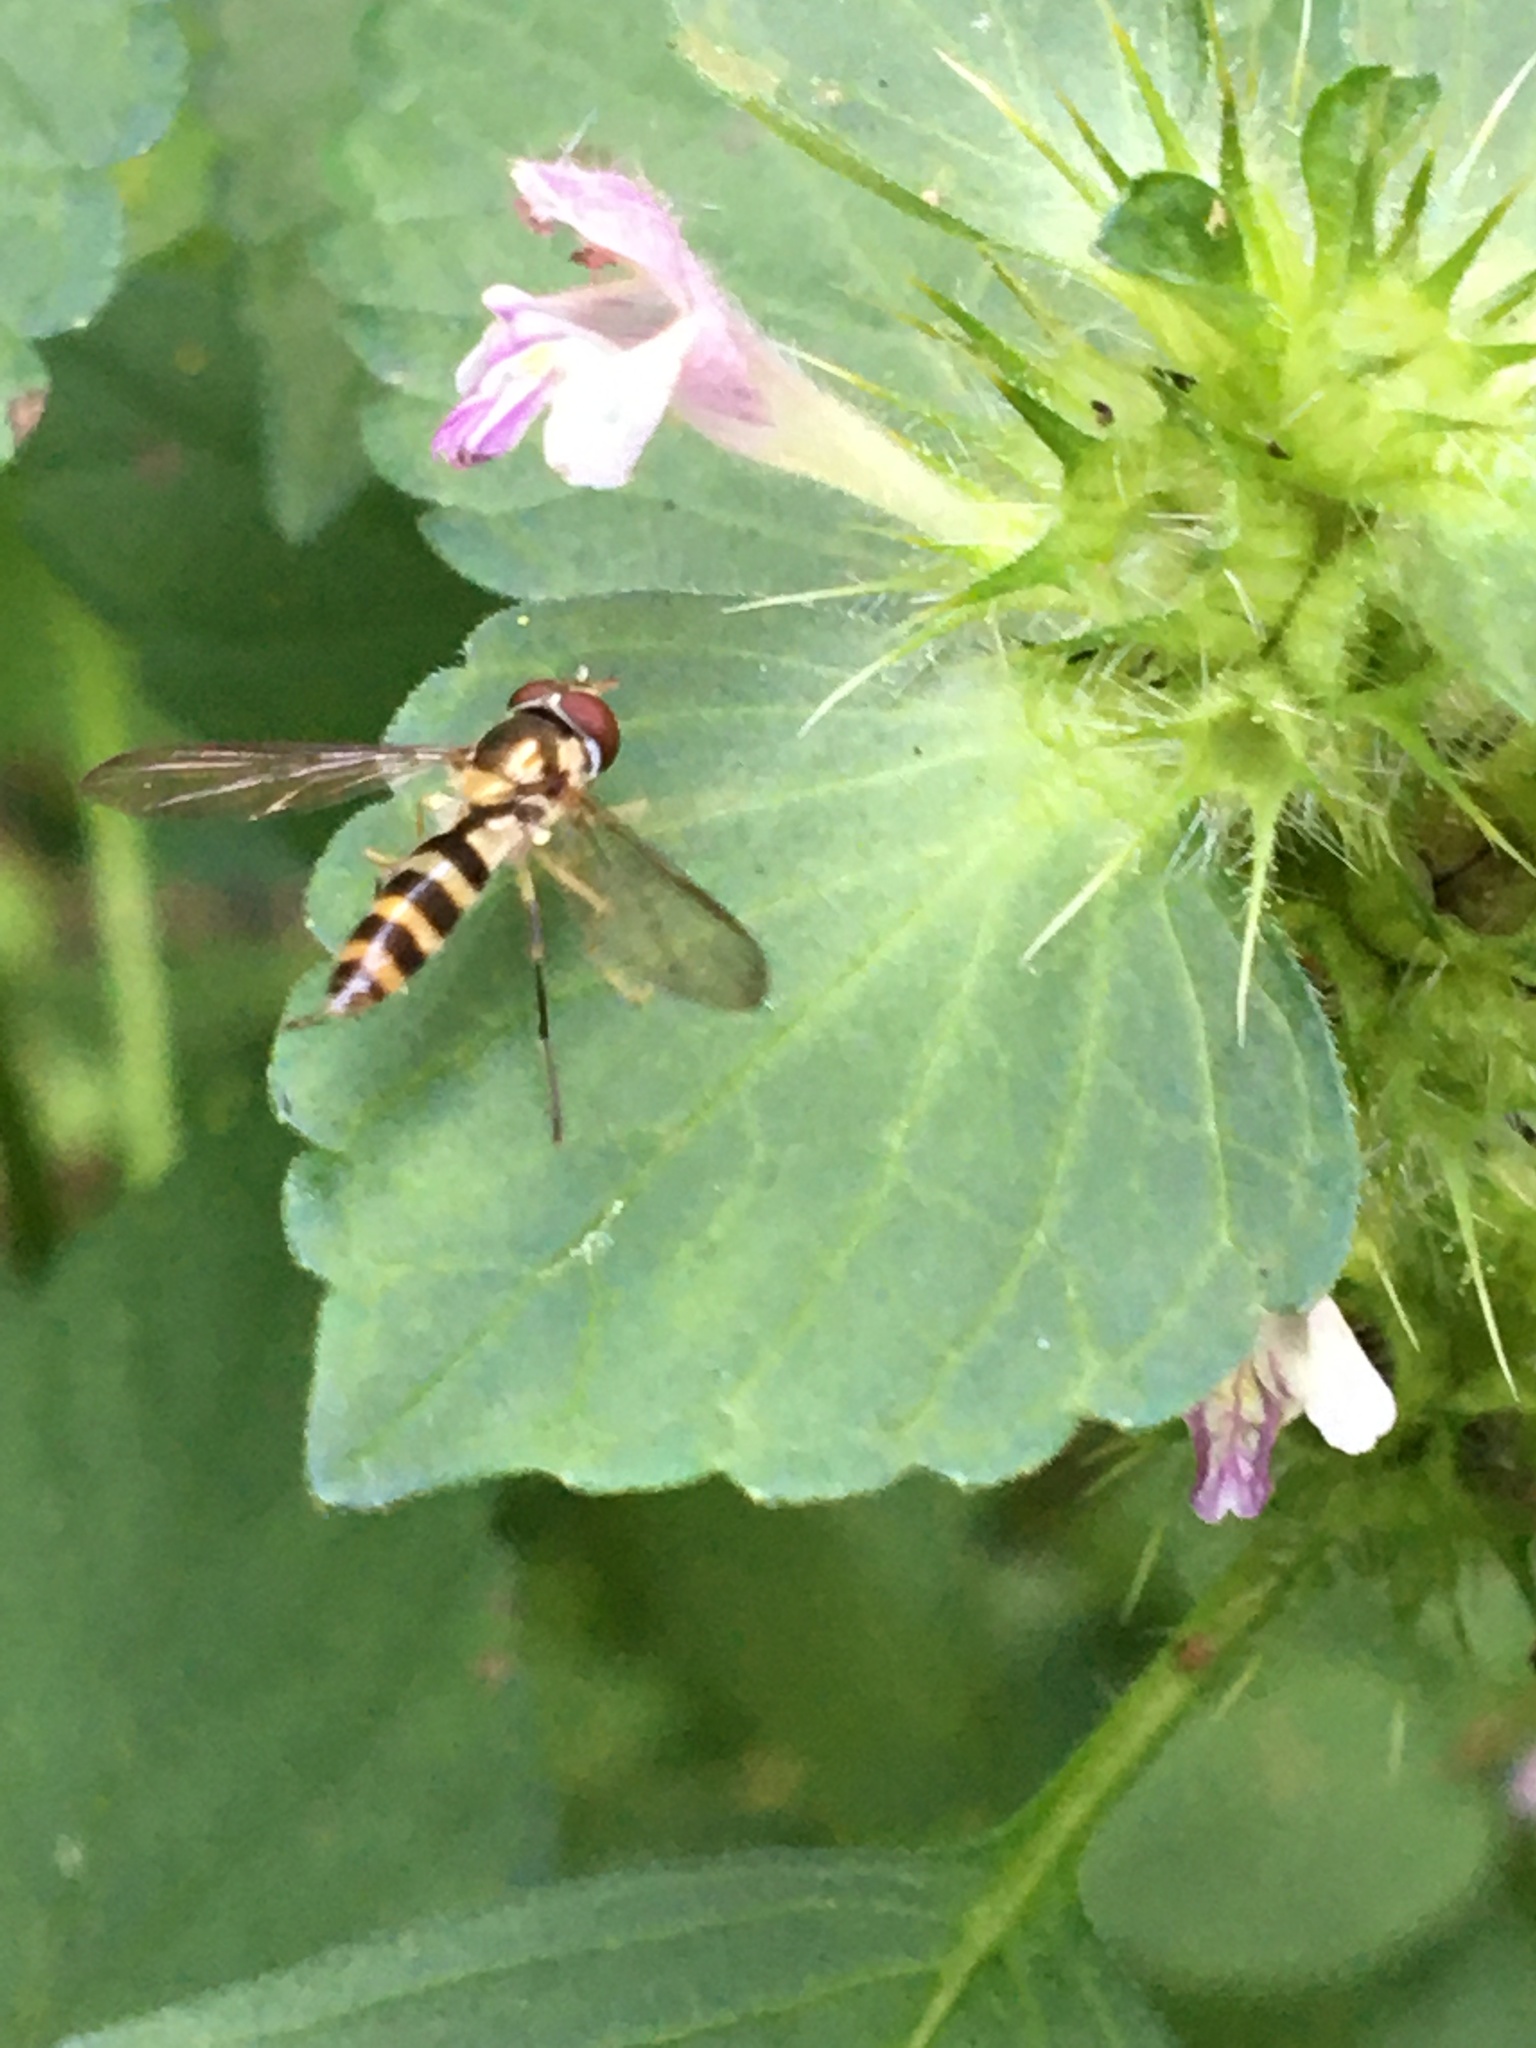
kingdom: Animalia
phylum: Arthropoda
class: Insecta
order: Diptera
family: Syrphidae
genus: Meliscaeva
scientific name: Meliscaeva cinctella
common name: American thintail fly
